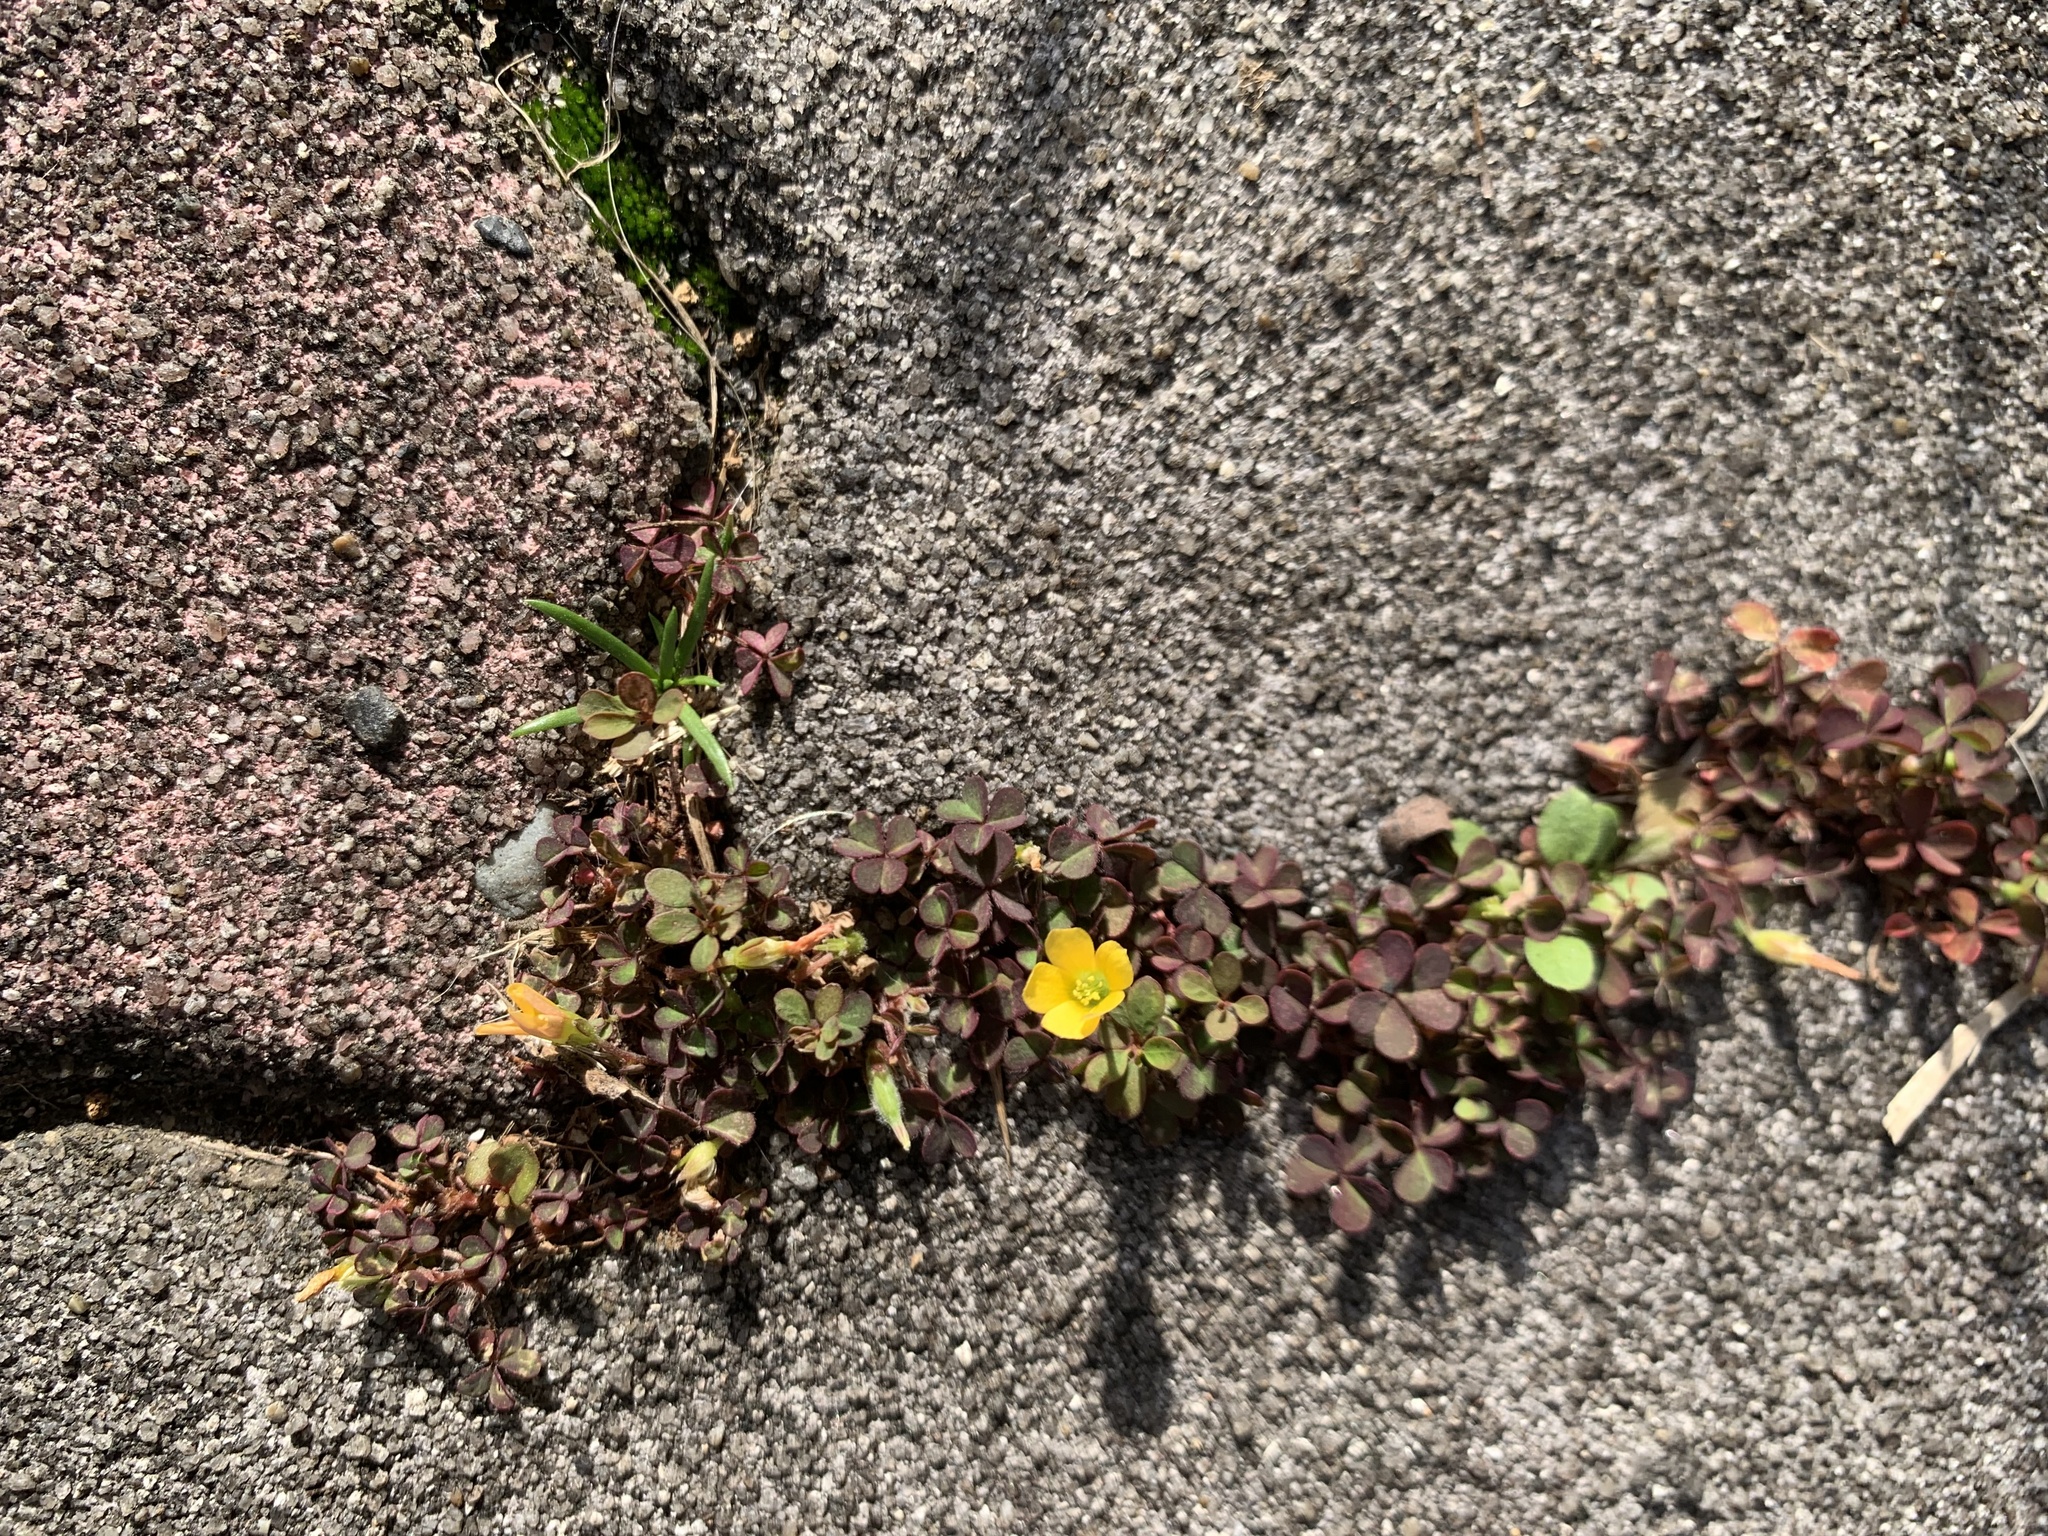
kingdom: Plantae
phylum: Tracheophyta
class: Magnoliopsida
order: Oxalidales
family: Oxalidaceae
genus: Oxalis
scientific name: Oxalis corniculata
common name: Procumbent yellow-sorrel
